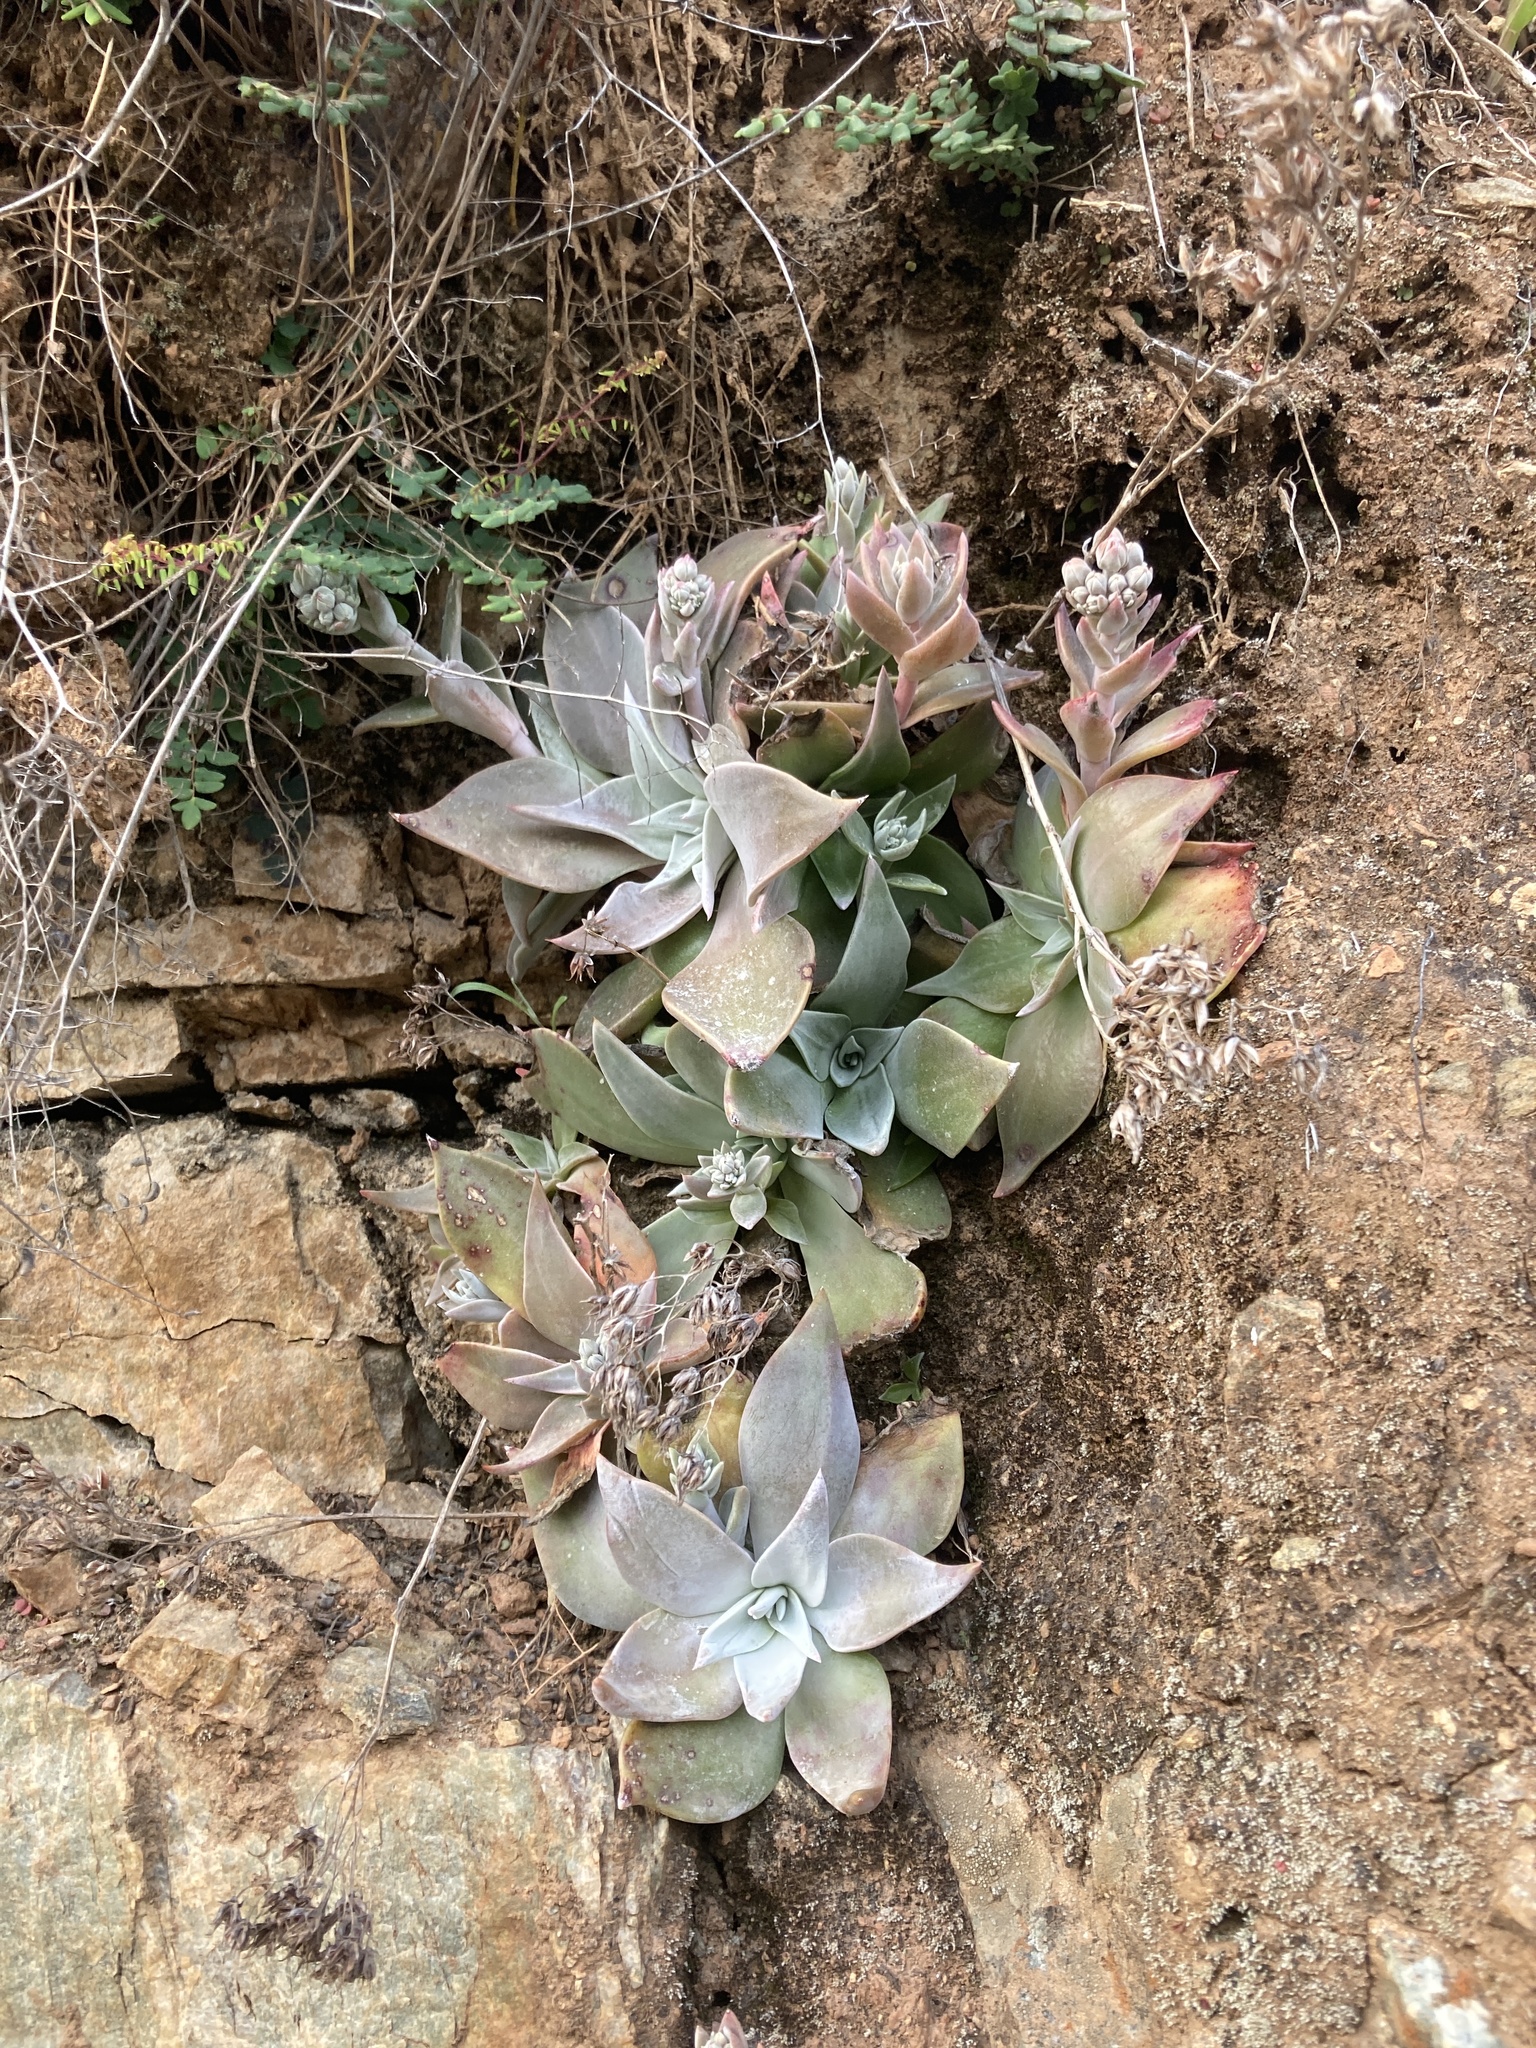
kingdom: Plantae
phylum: Tracheophyta
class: Magnoliopsida
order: Saxifragales
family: Crassulaceae
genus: Dudleya
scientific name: Dudleya cymosa
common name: Canyon dudleya
